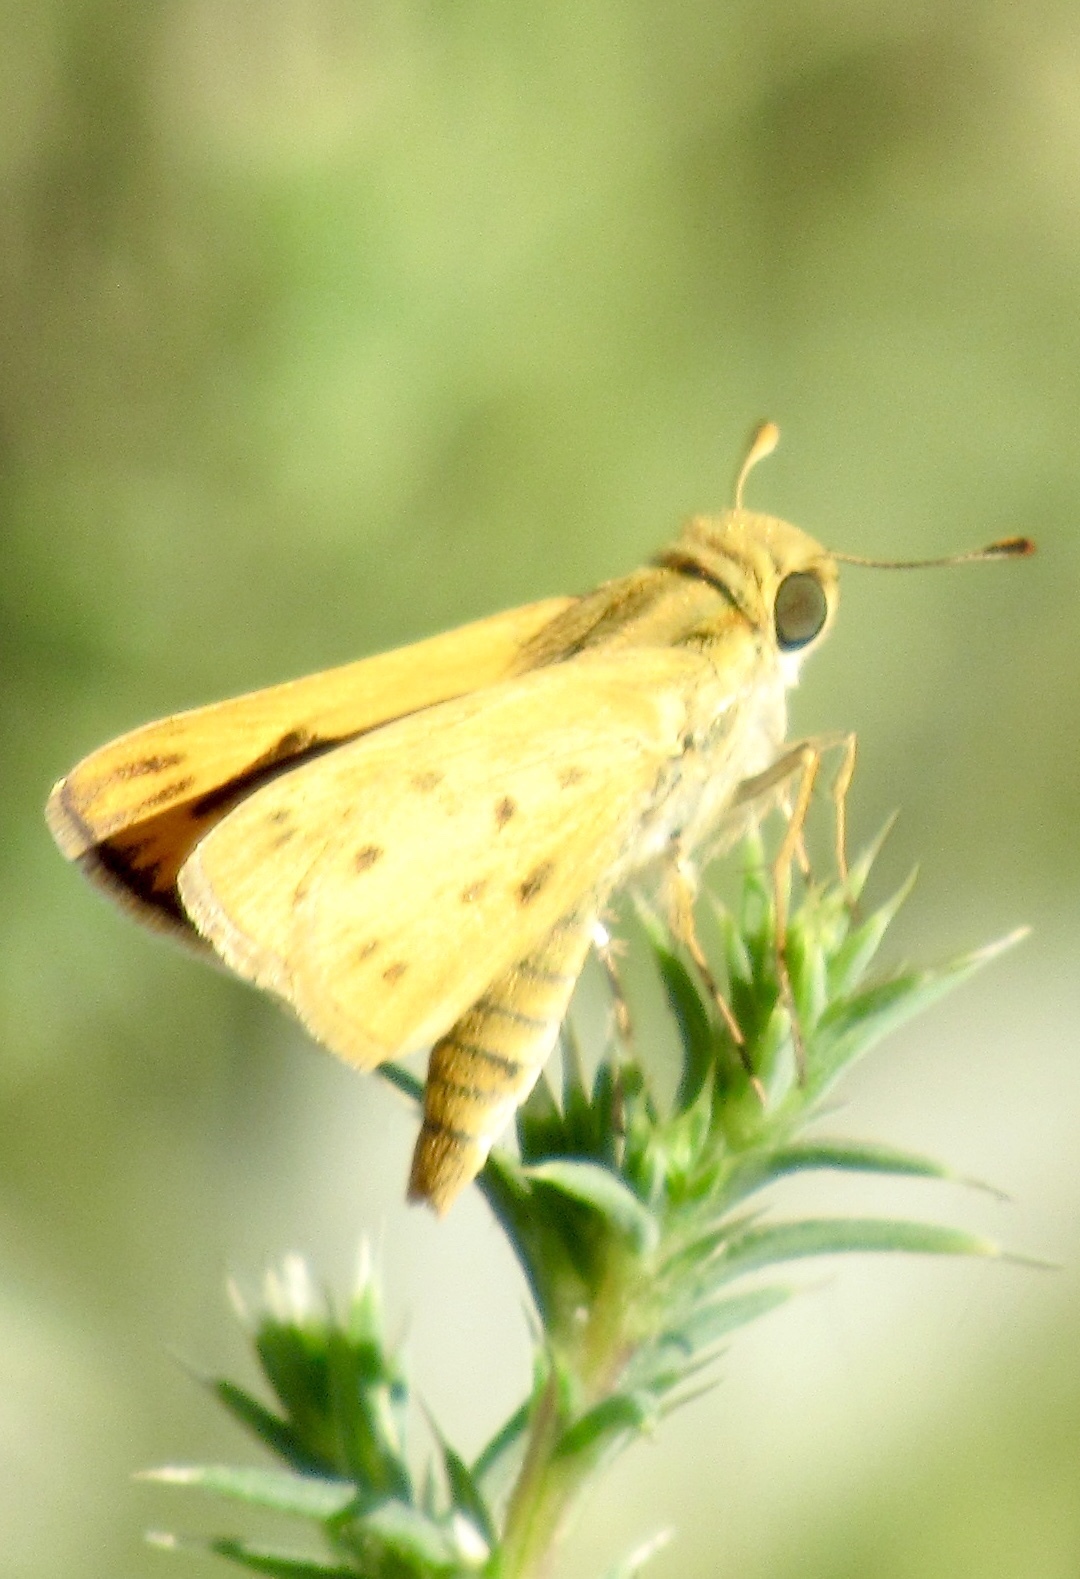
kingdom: Animalia
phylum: Arthropoda
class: Insecta
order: Lepidoptera
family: Hesperiidae
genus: Hylephila
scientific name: Hylephila phyleus
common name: Fiery skipper
